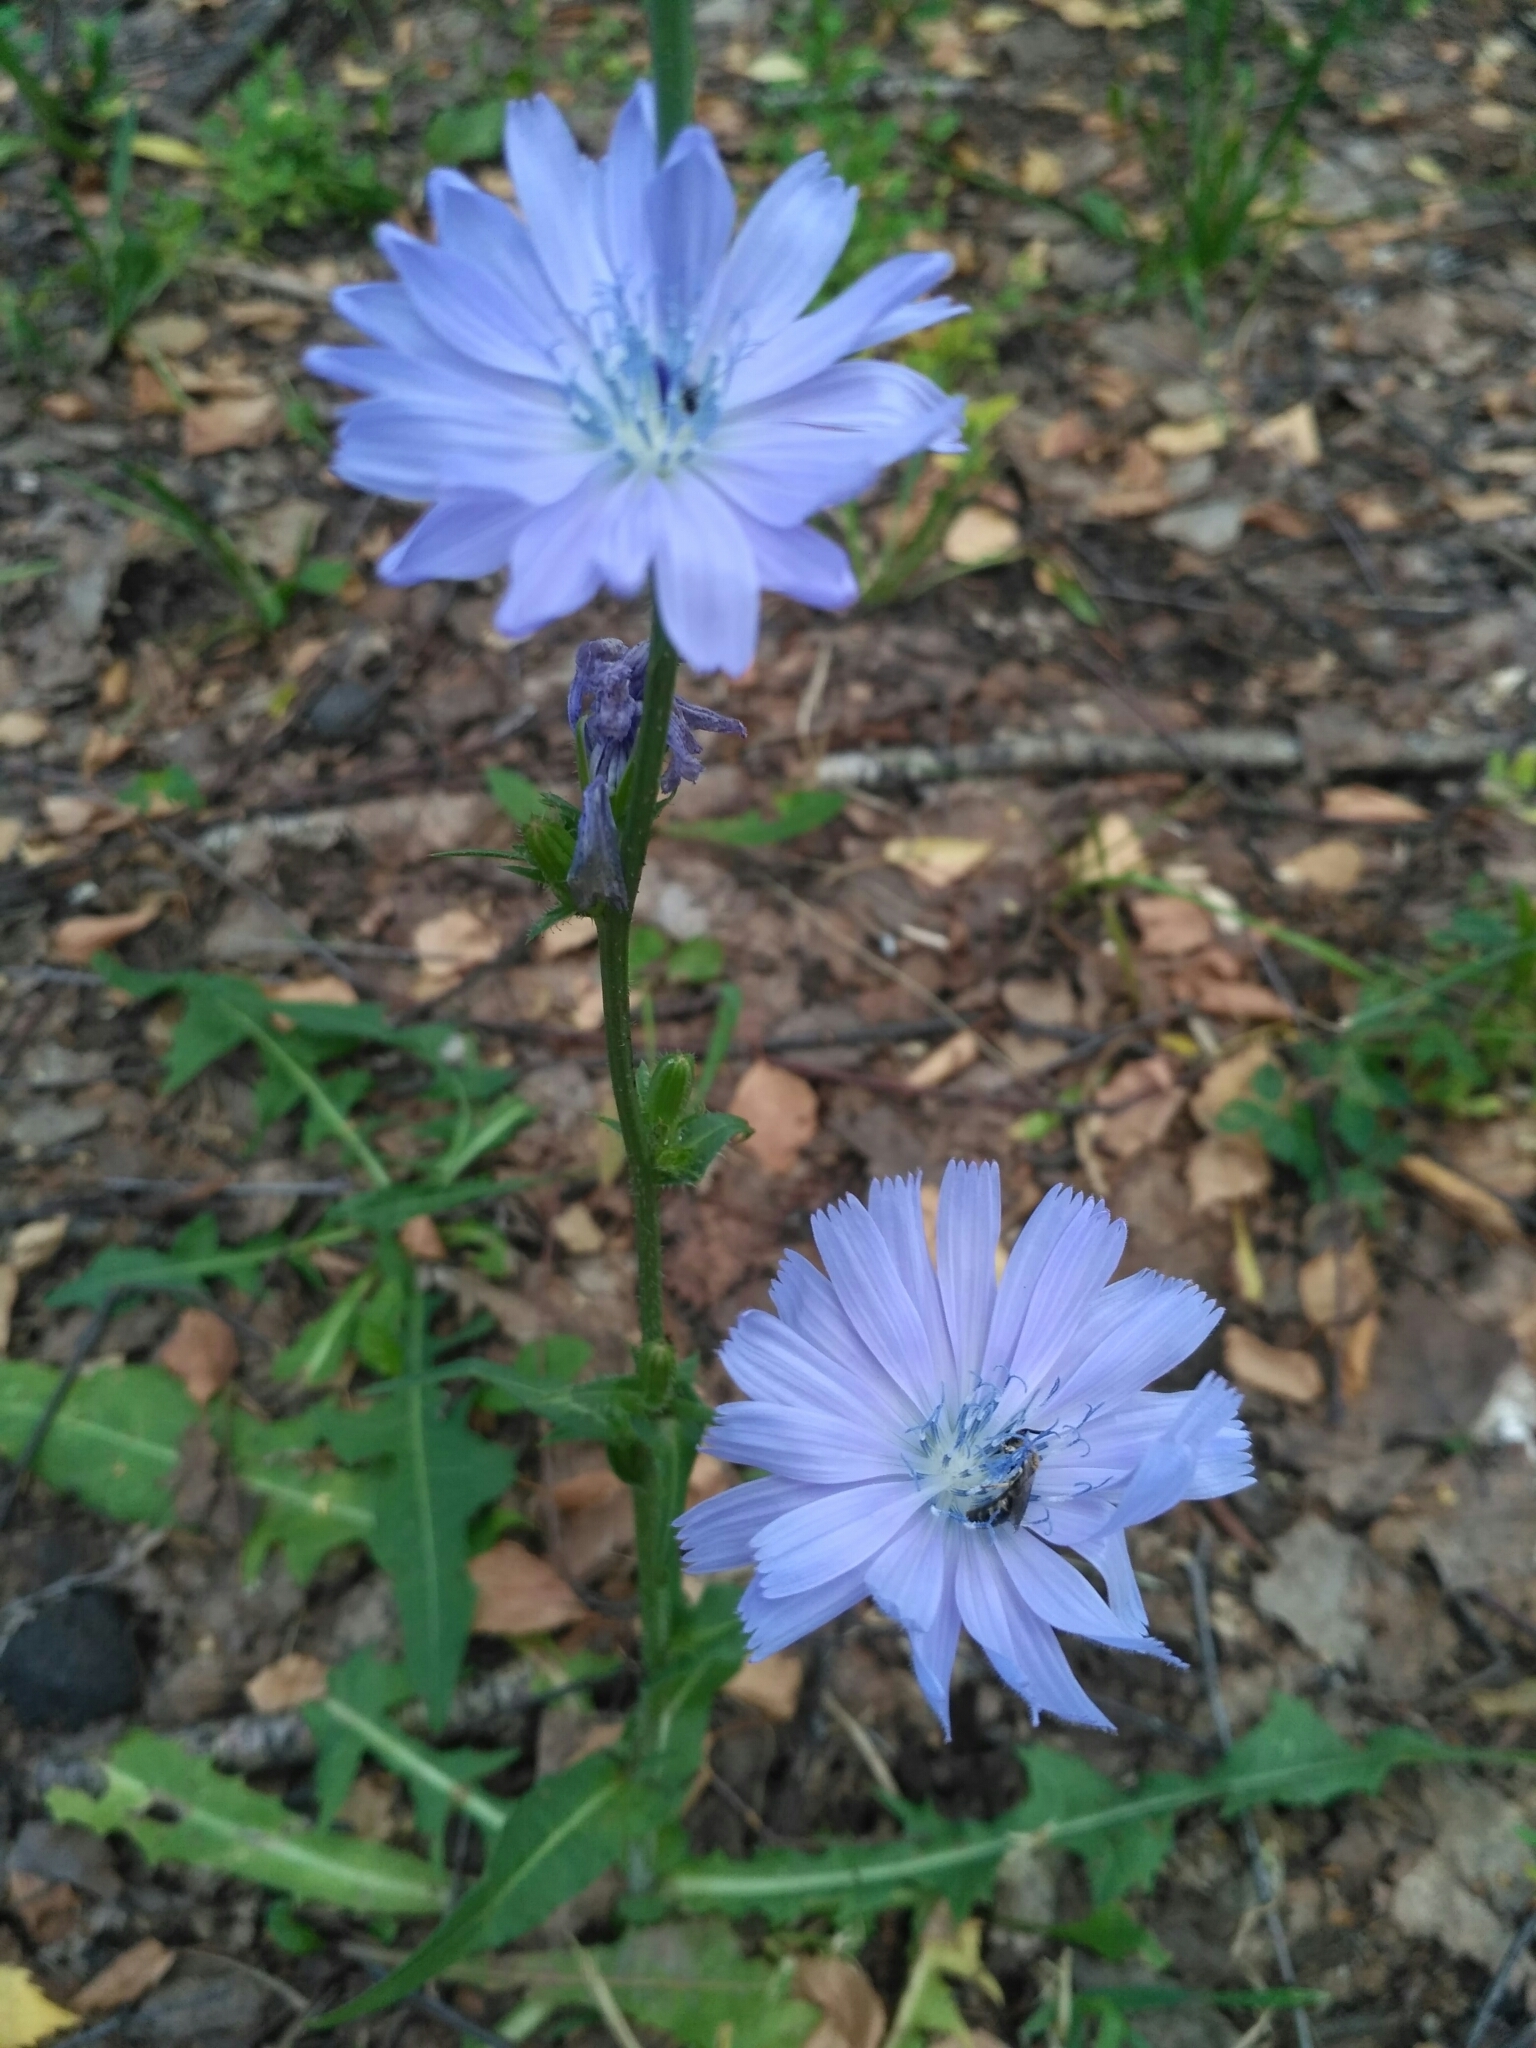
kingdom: Plantae
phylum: Tracheophyta
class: Magnoliopsida
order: Asterales
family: Asteraceae
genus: Cichorium
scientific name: Cichorium intybus
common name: Chicory
